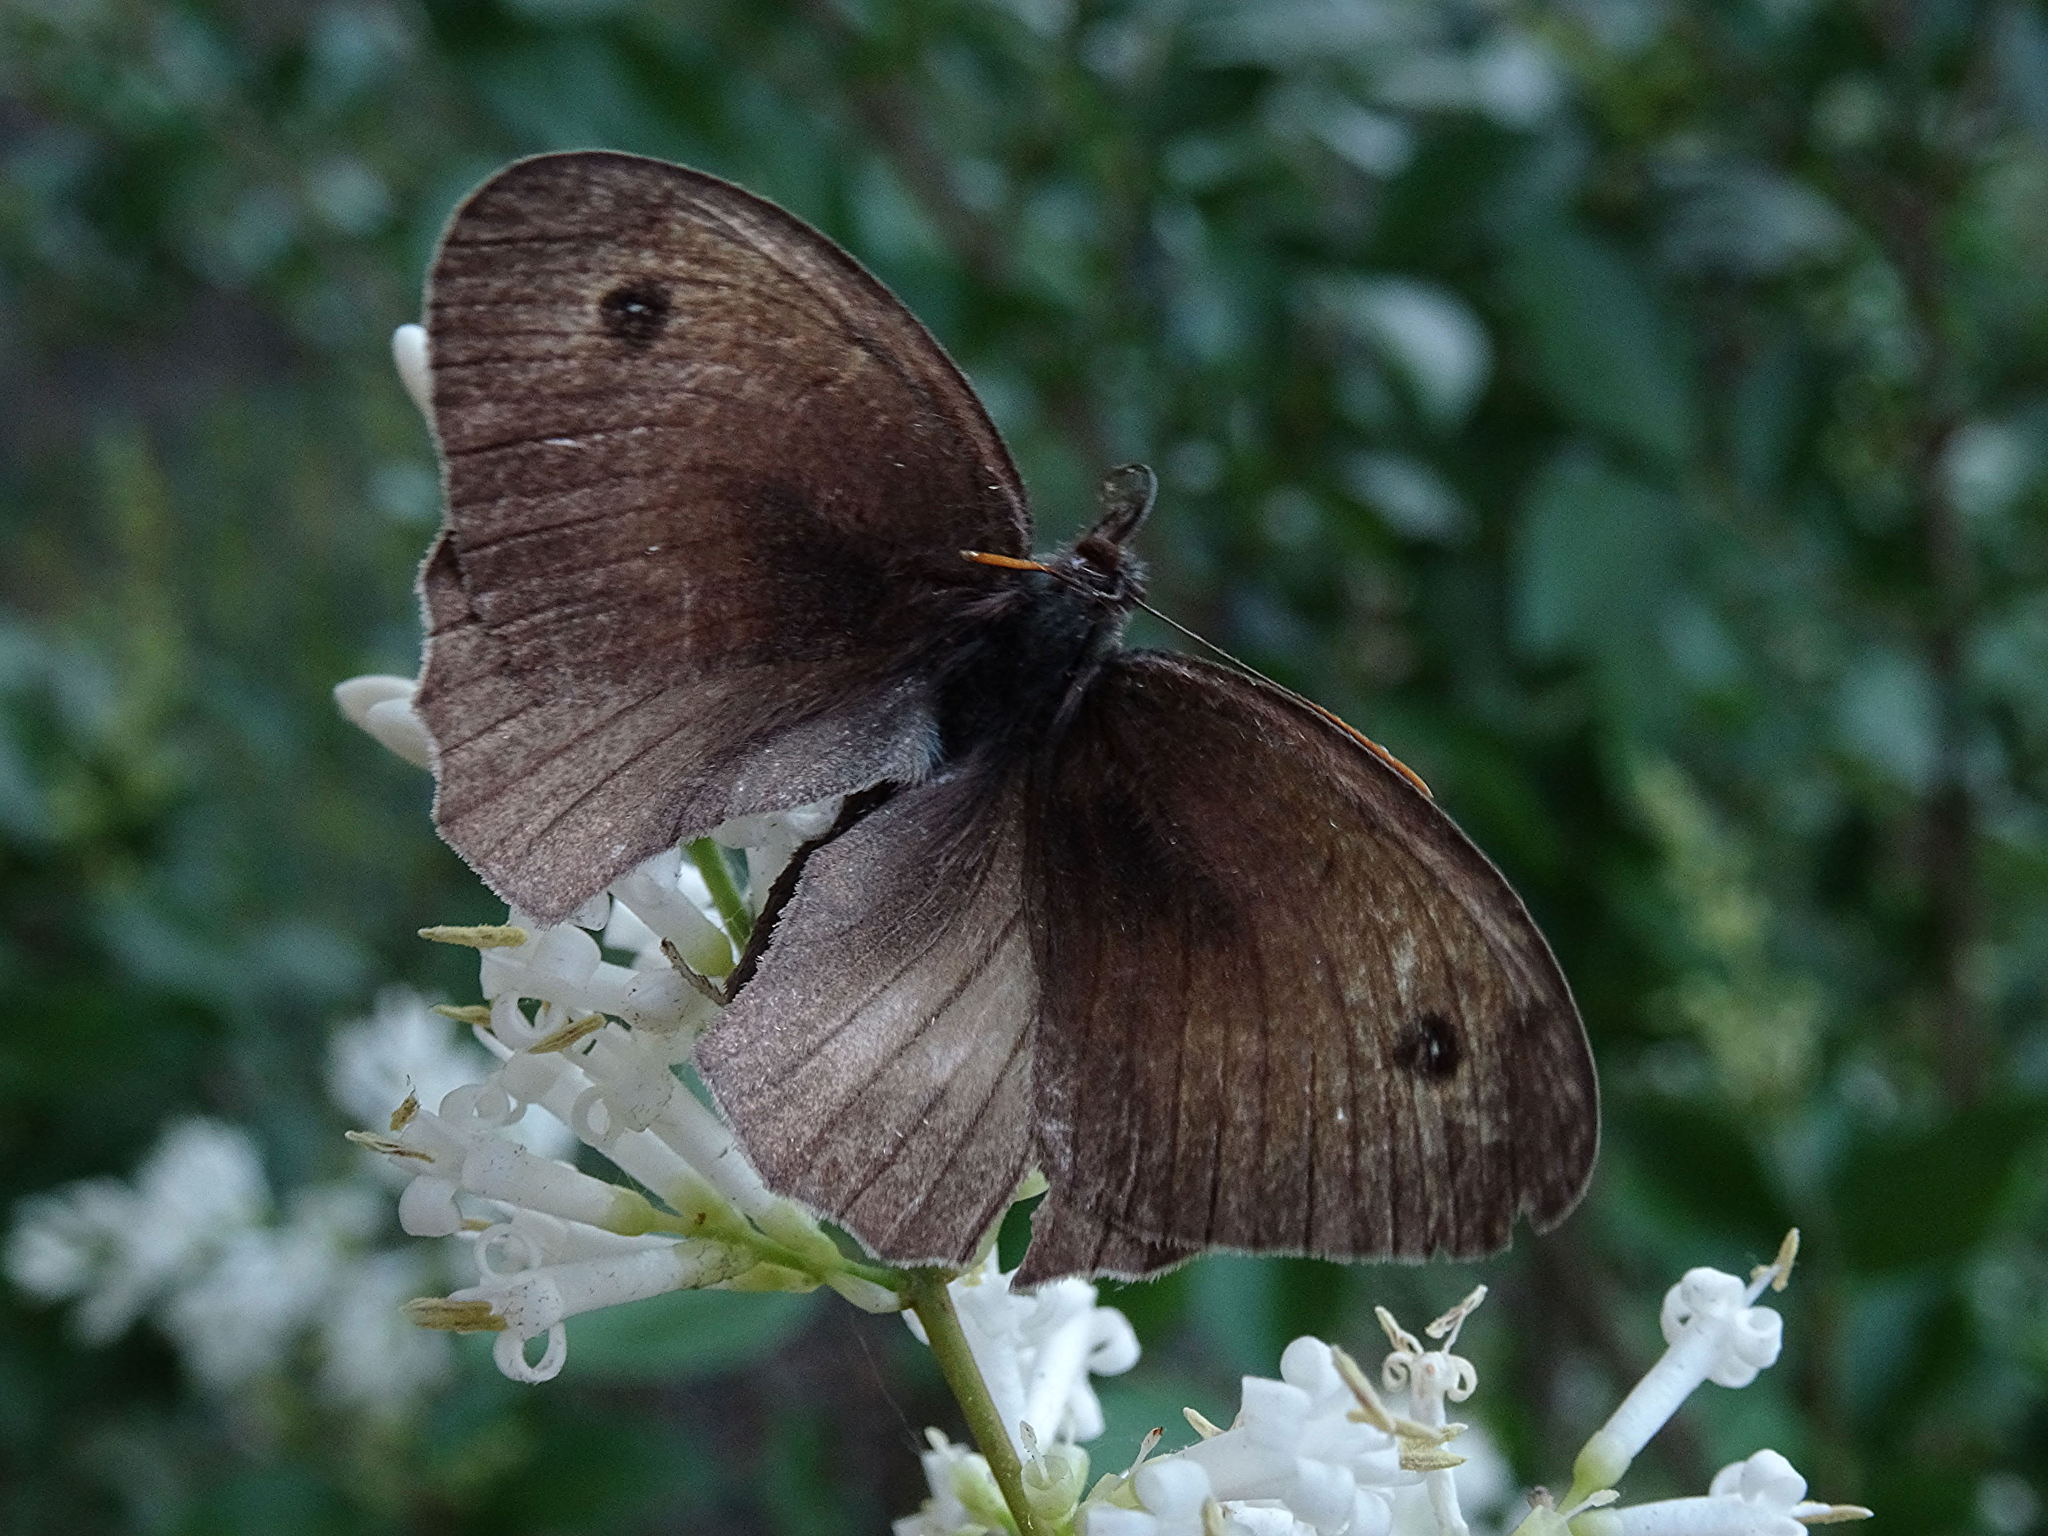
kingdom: Animalia
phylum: Arthropoda
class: Insecta
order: Lepidoptera
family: Nymphalidae
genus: Maniola
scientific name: Maniola jurtina
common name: Meadow brown
